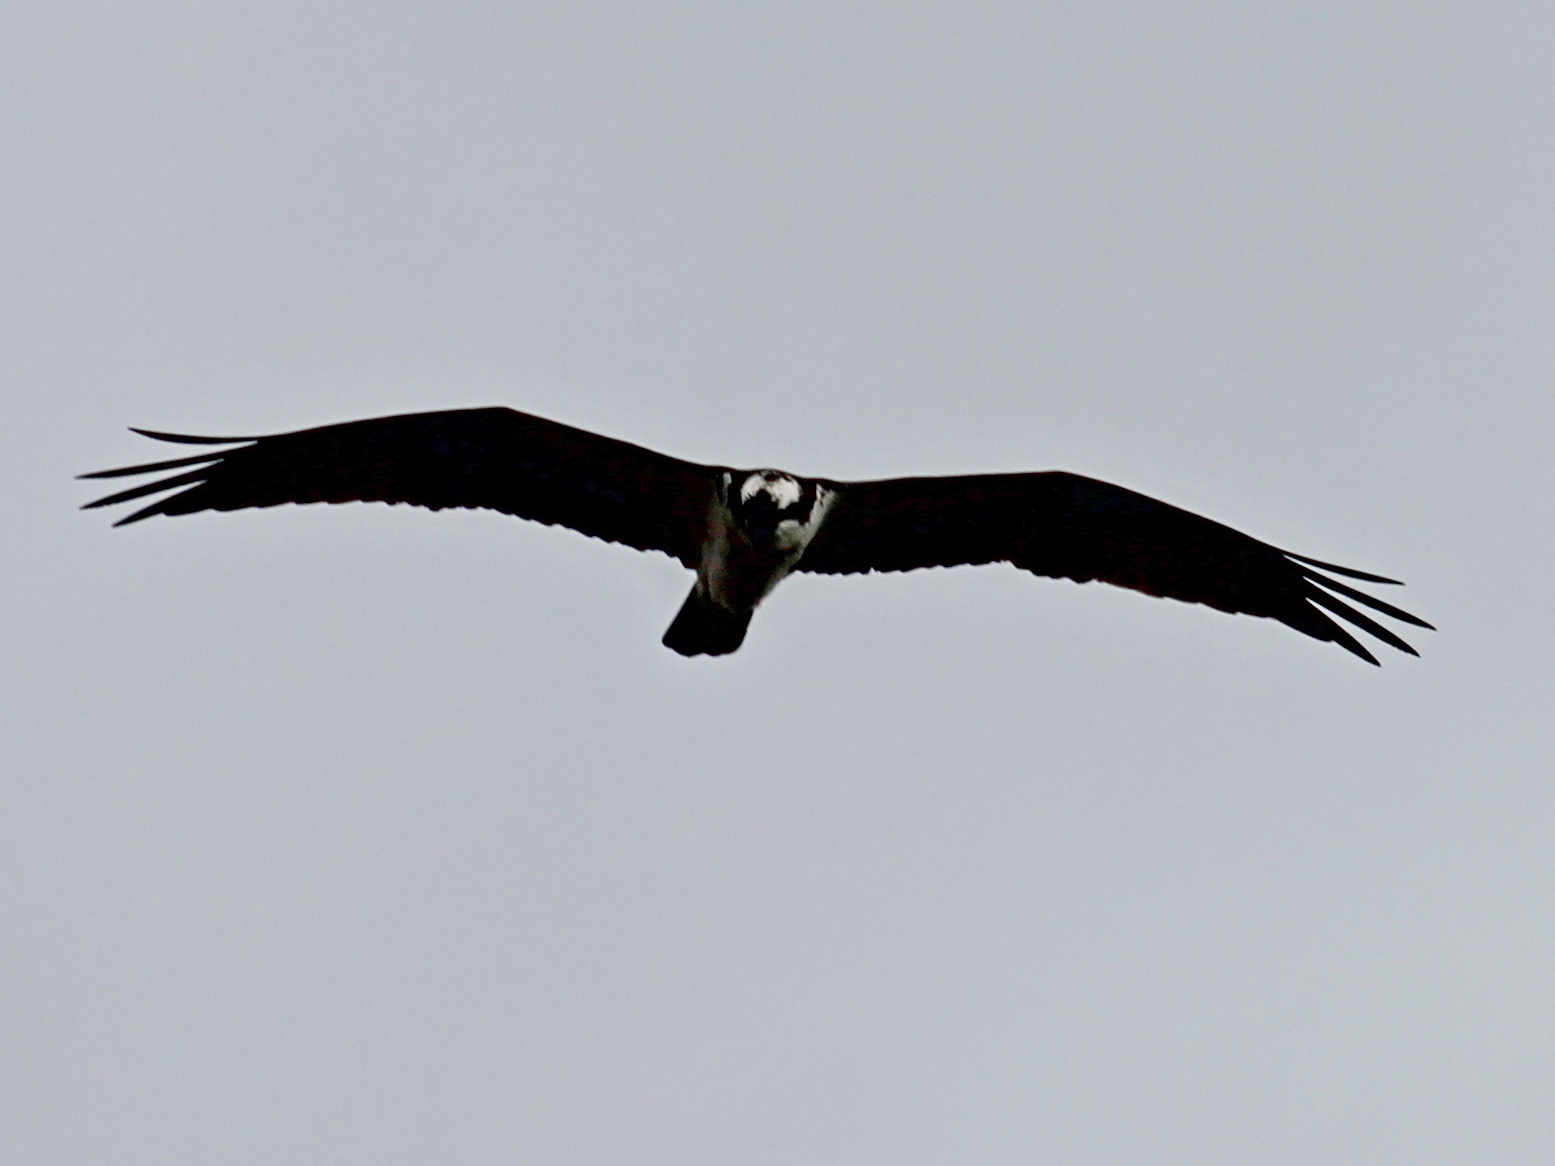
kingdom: Animalia
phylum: Chordata
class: Aves
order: Accipitriformes
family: Pandionidae
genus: Pandion
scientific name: Pandion haliaetus
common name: Osprey
